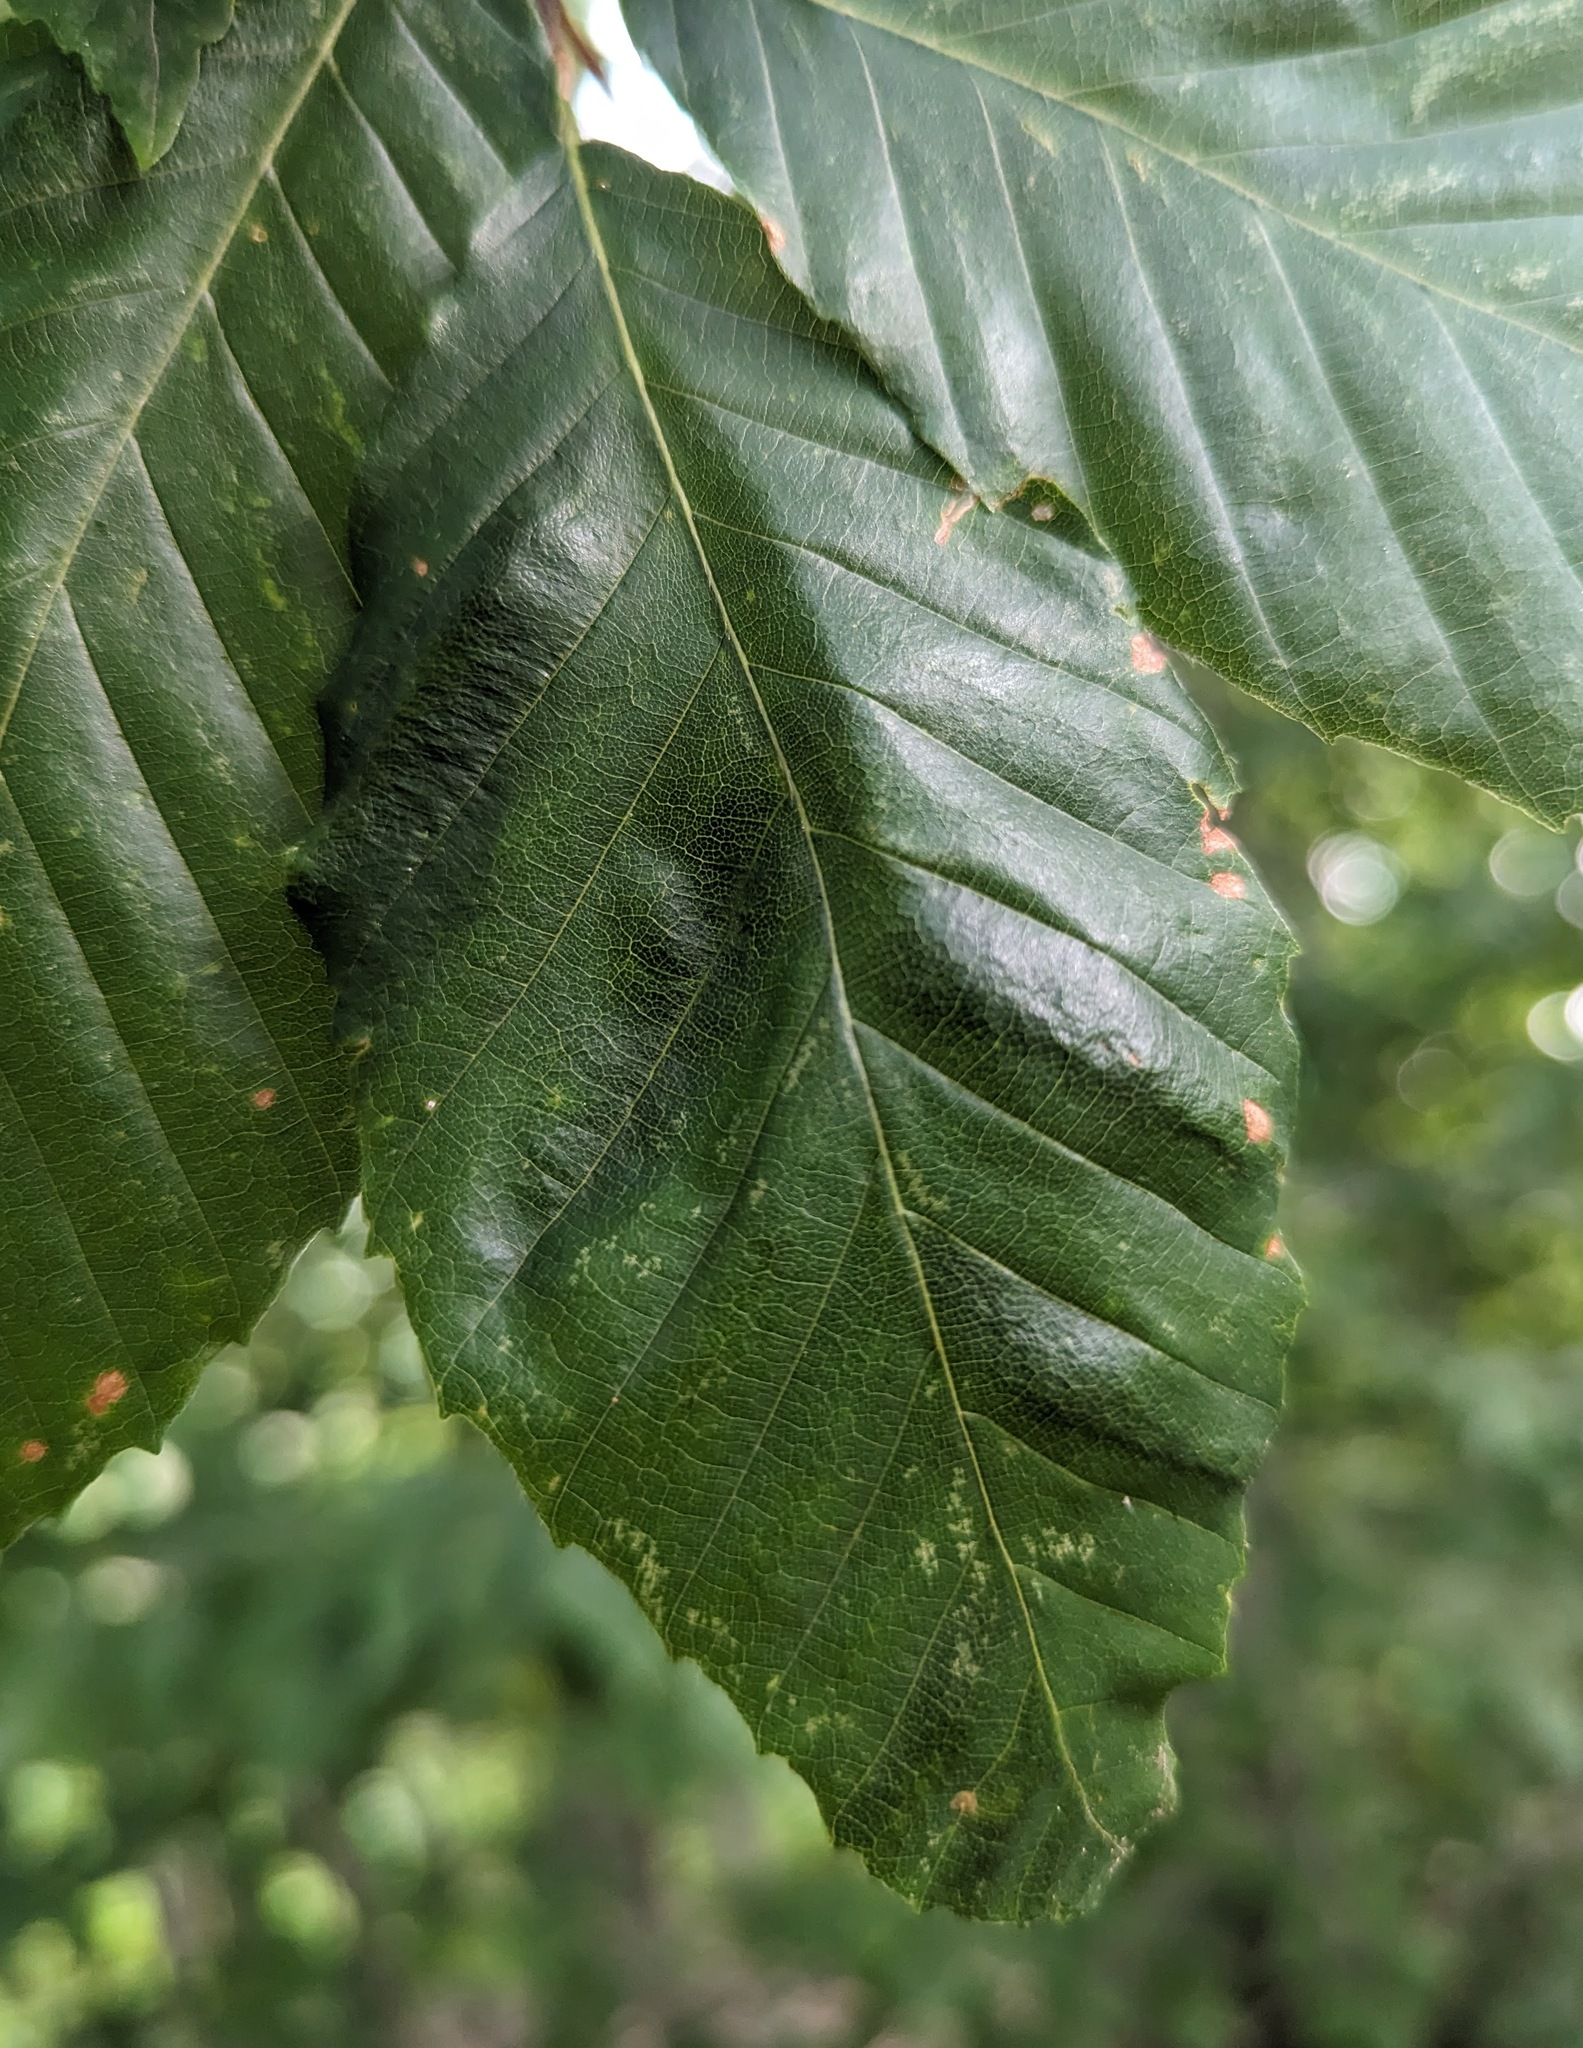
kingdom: Animalia
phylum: Nematoda
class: Chromadorea
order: Rhabditida
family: Anguinidae
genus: Litylenchus
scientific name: Litylenchus crenatae
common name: Beech leaf disease
